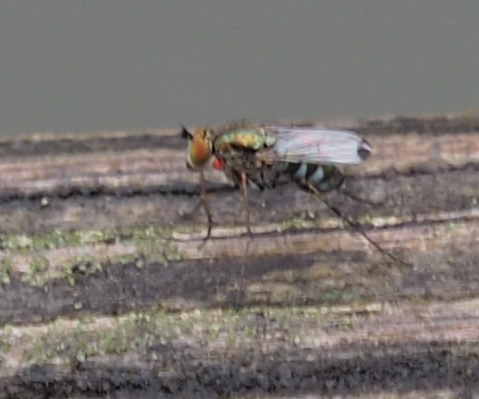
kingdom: Animalia
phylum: Arthropoda
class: Insecta
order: Diptera
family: Dolichopodidae
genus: Tachytrechus
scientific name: Tachytrechus rotundipennis
